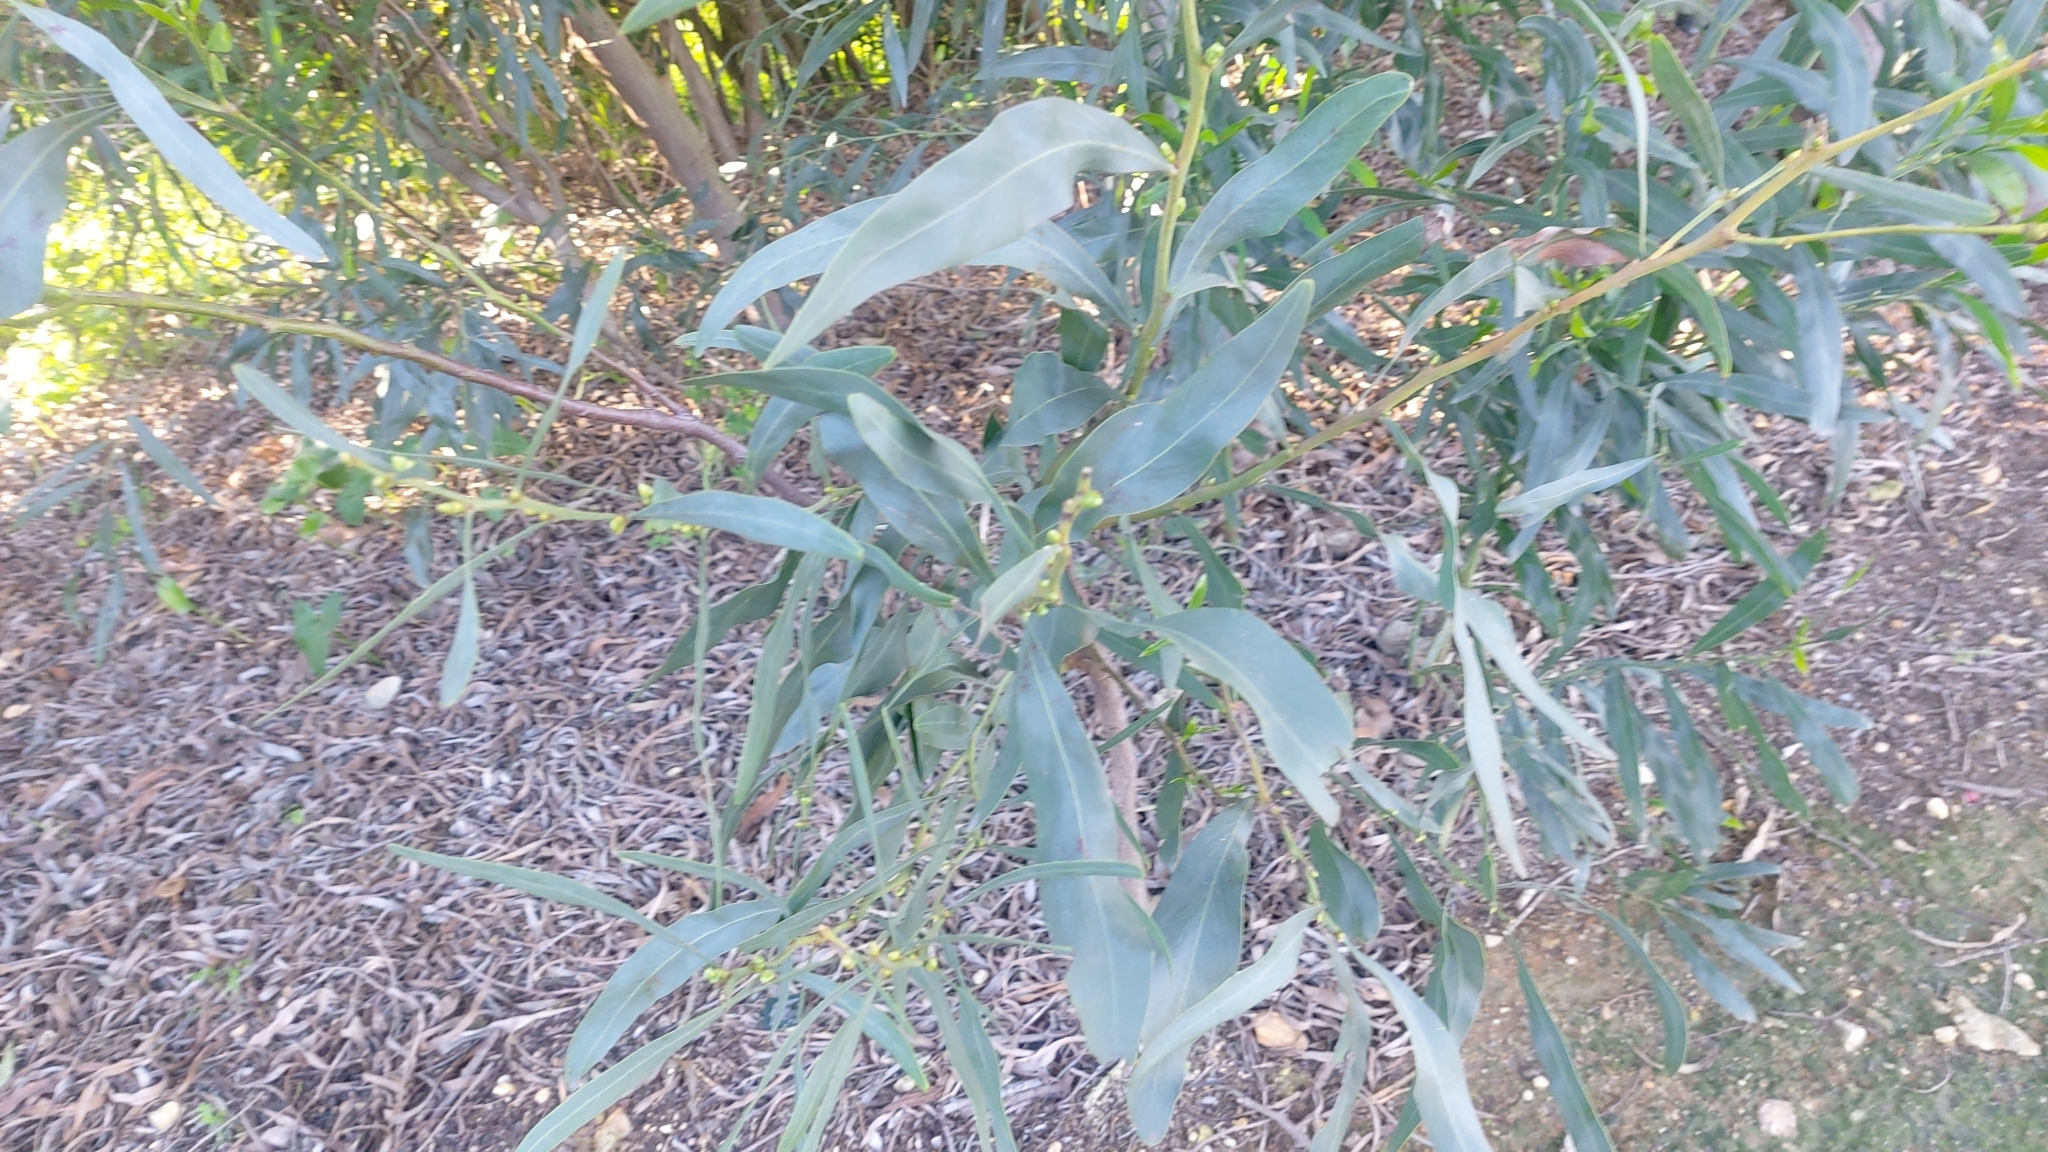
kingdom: Plantae
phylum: Tracheophyta
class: Magnoliopsida
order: Fabales
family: Fabaceae
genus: Acacia
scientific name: Acacia saligna
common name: Orange wattle
